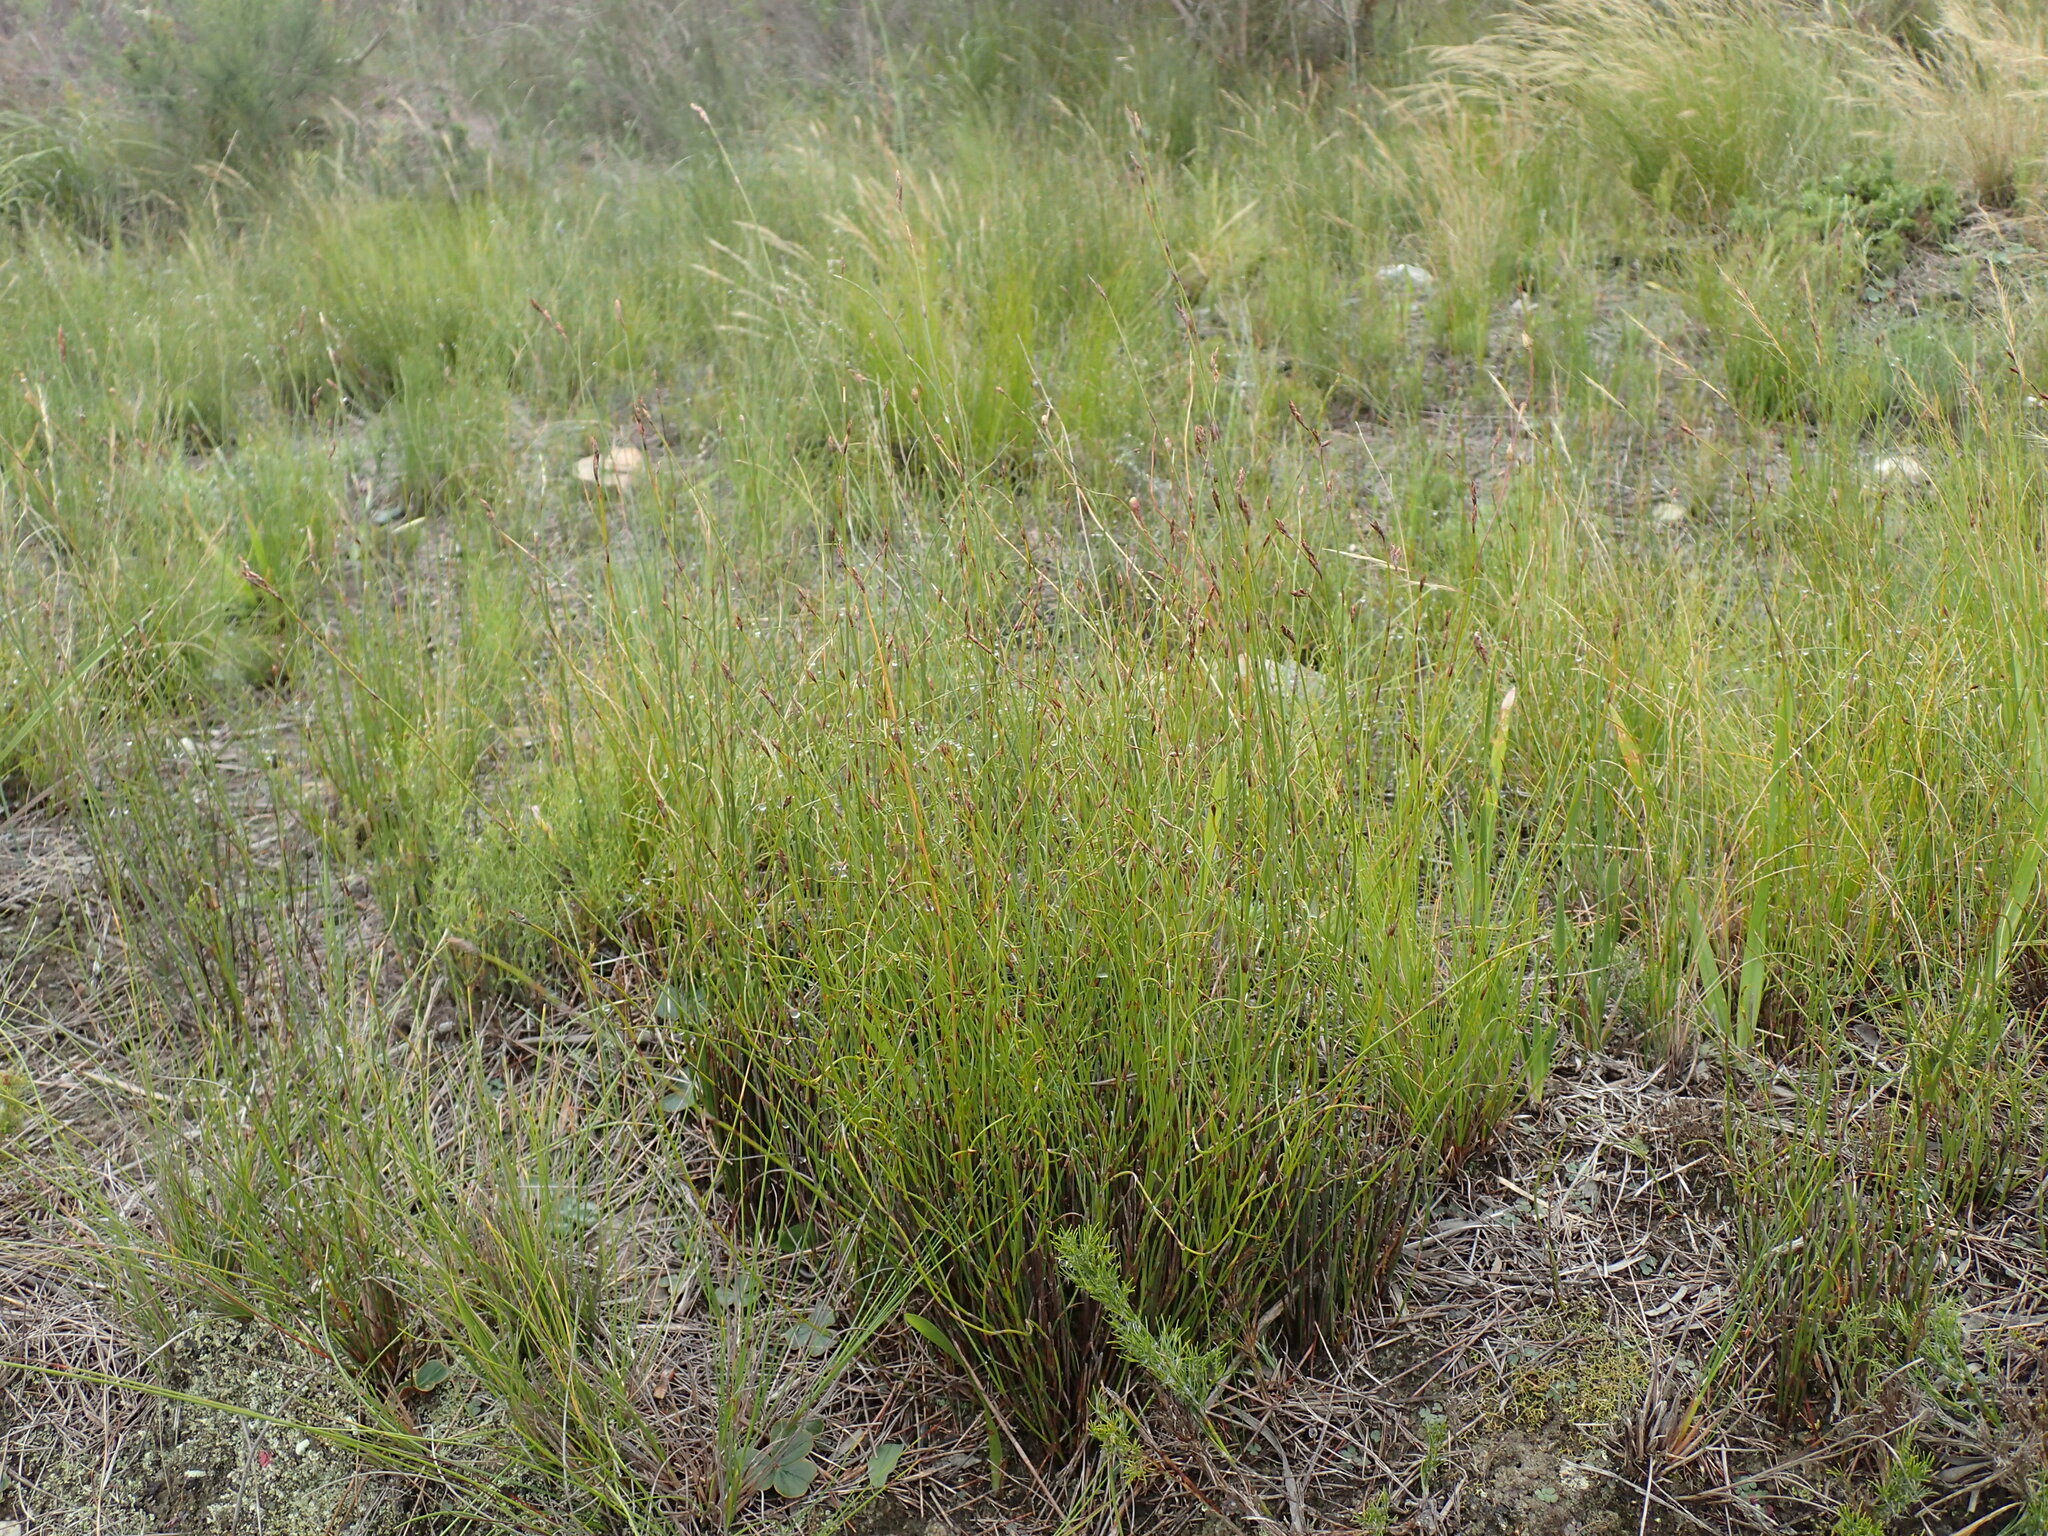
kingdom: Plantae
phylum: Tracheophyta
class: Liliopsida
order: Poales
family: Restionaceae
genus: Restio
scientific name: Restio triticeus
